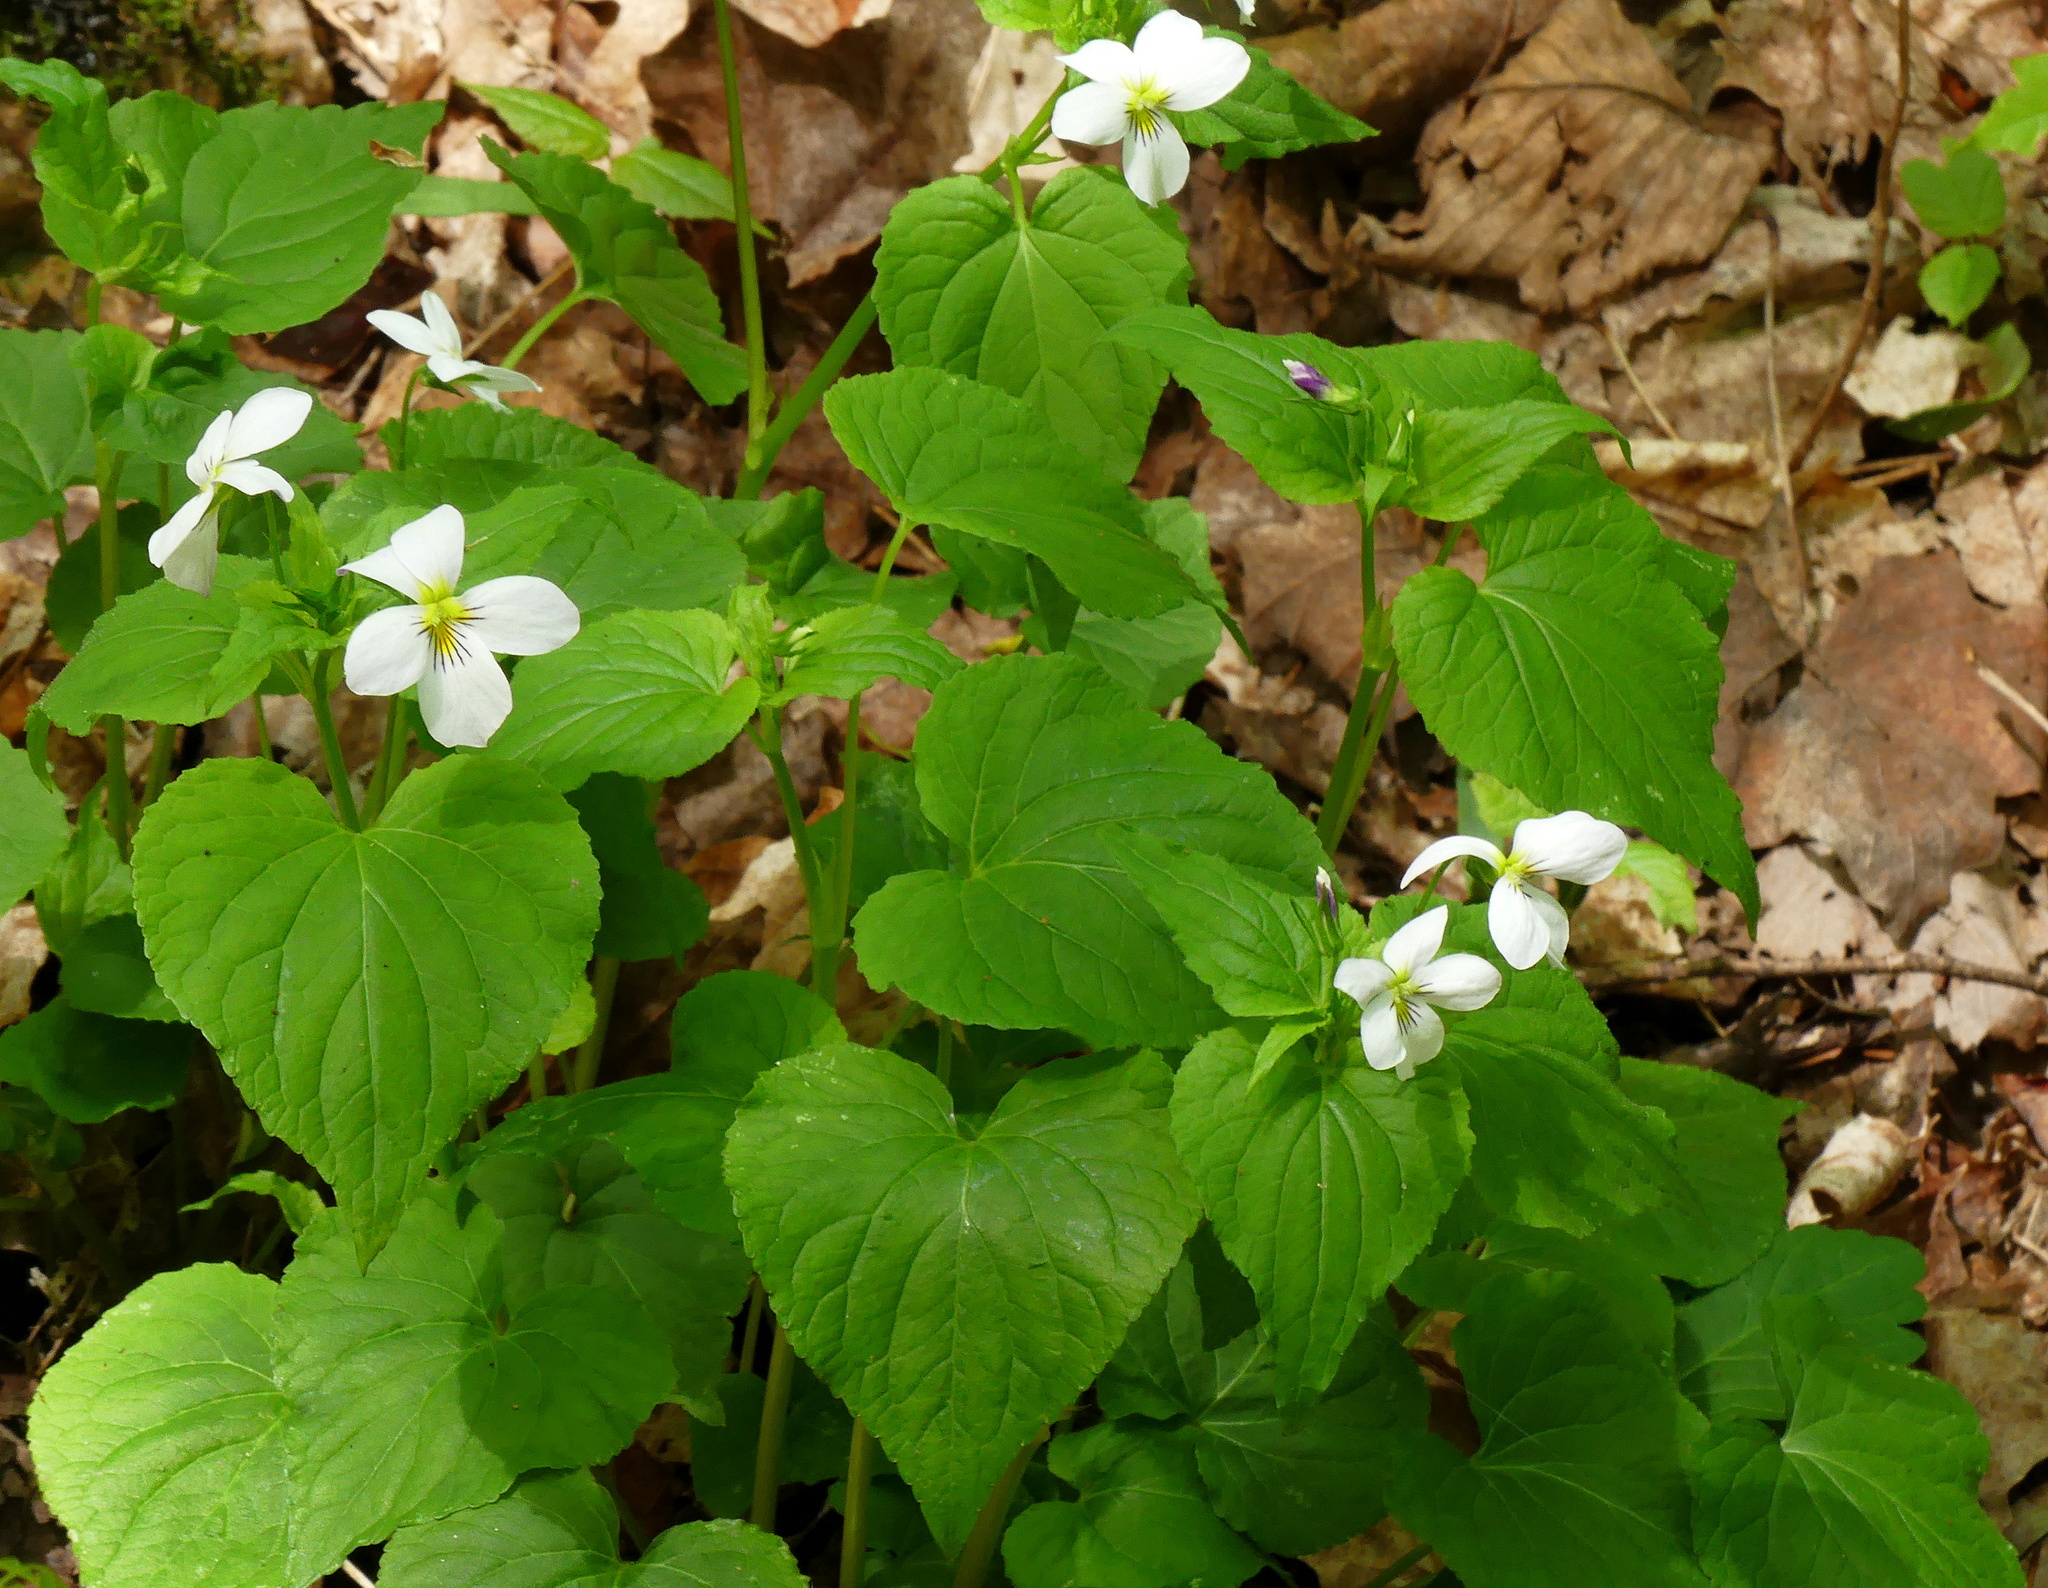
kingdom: Plantae
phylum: Tracheophyta
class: Magnoliopsida
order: Malpighiales
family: Violaceae
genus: Viola
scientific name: Viola canadensis
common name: Canada violet
